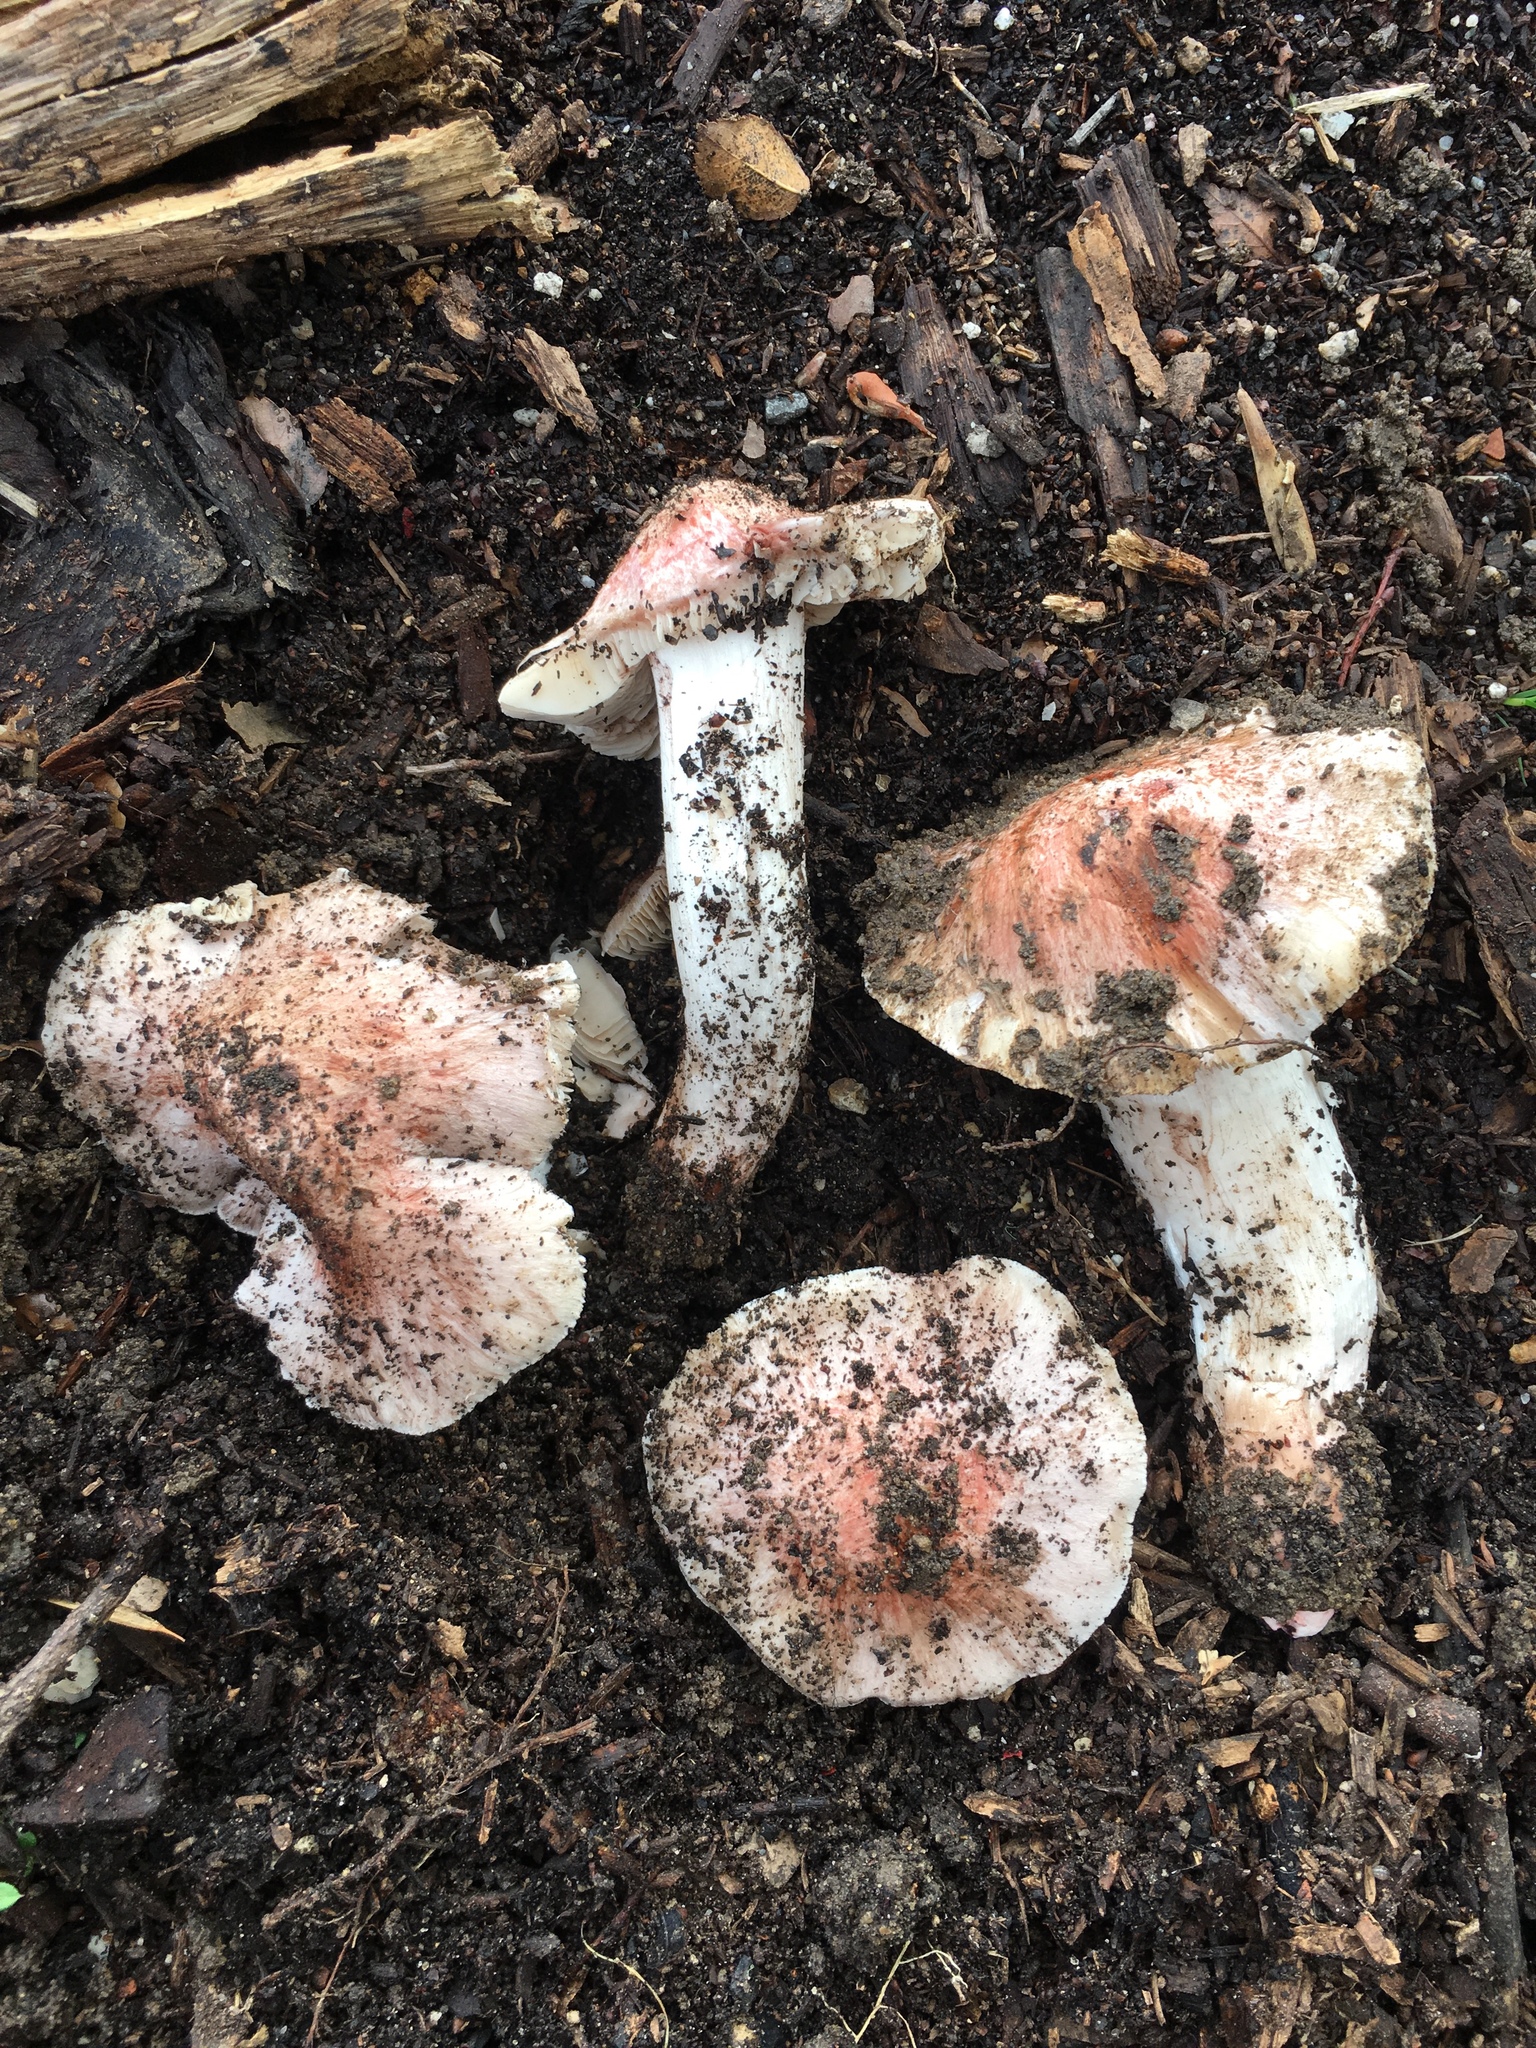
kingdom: Fungi
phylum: Basidiomycota
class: Agaricomycetes
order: Agaricales
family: Tricholomataceae
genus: Melanoleuca
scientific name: Melanoleuca dryophila
